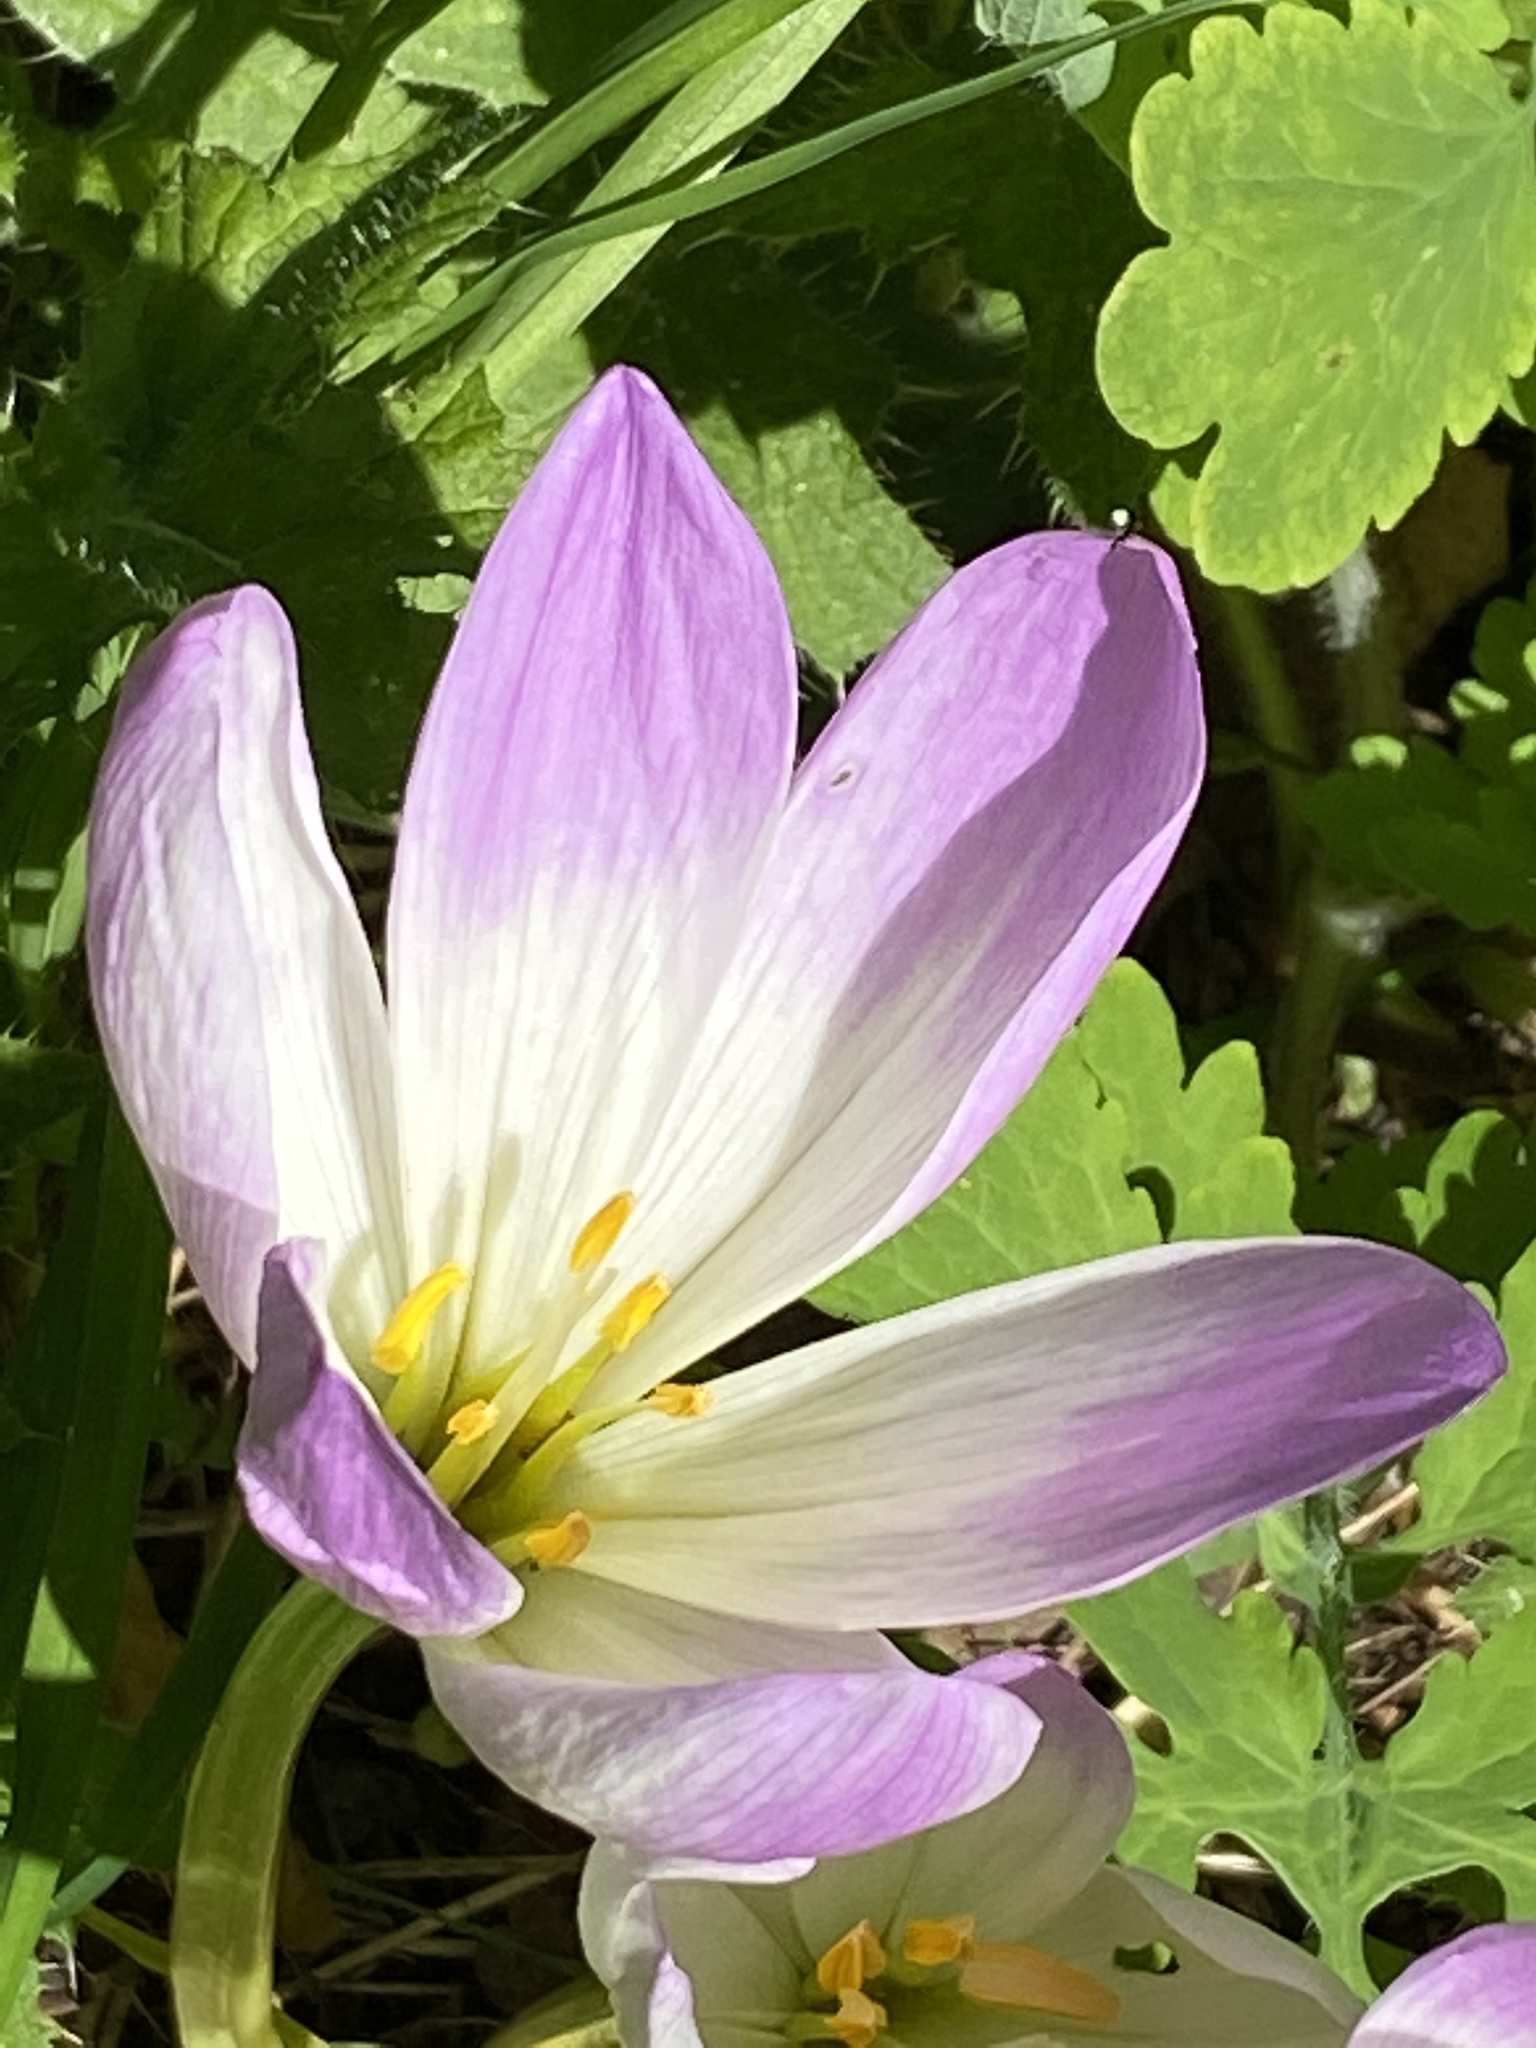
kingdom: Plantae
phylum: Tracheophyta
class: Liliopsida
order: Liliales
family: Colchicaceae
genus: Colchicum
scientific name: Colchicum autumnale
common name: Autumn crocus
